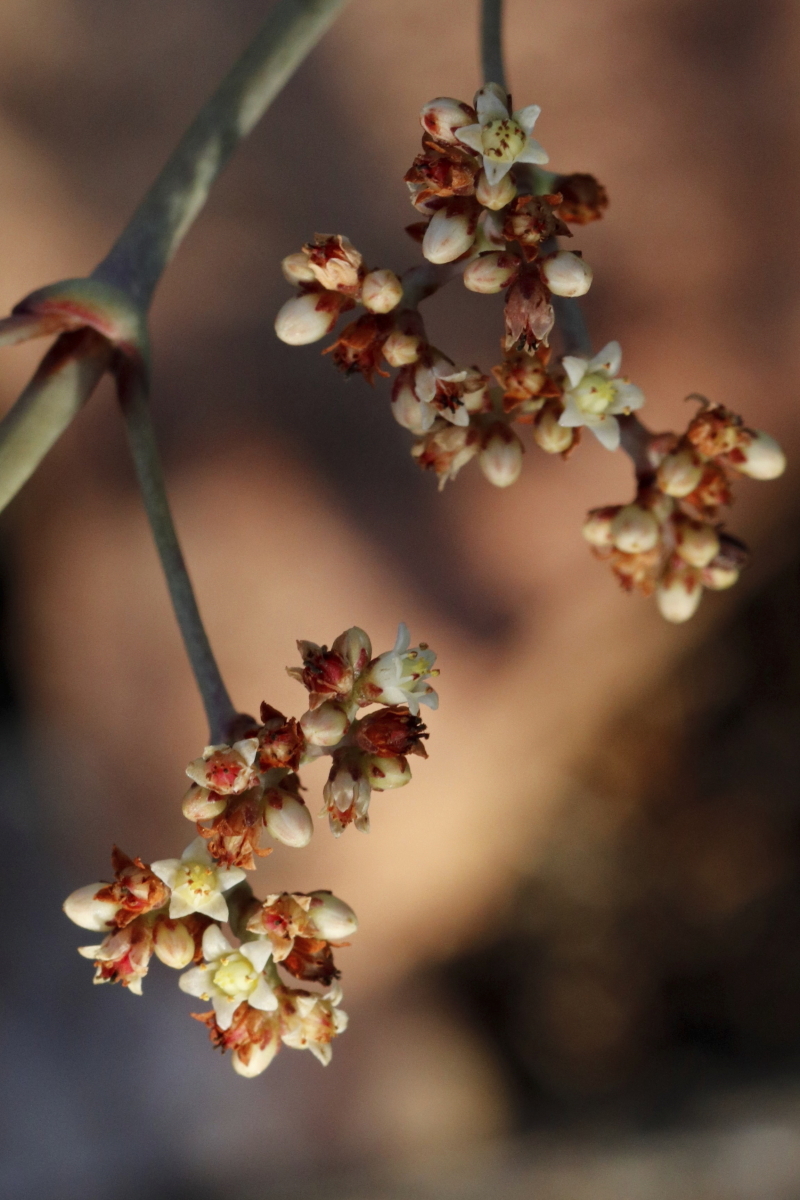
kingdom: Plantae
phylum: Tracheophyta
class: Magnoliopsida
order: Saxifragales
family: Crassulaceae
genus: Crassula
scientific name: Crassula perforata
